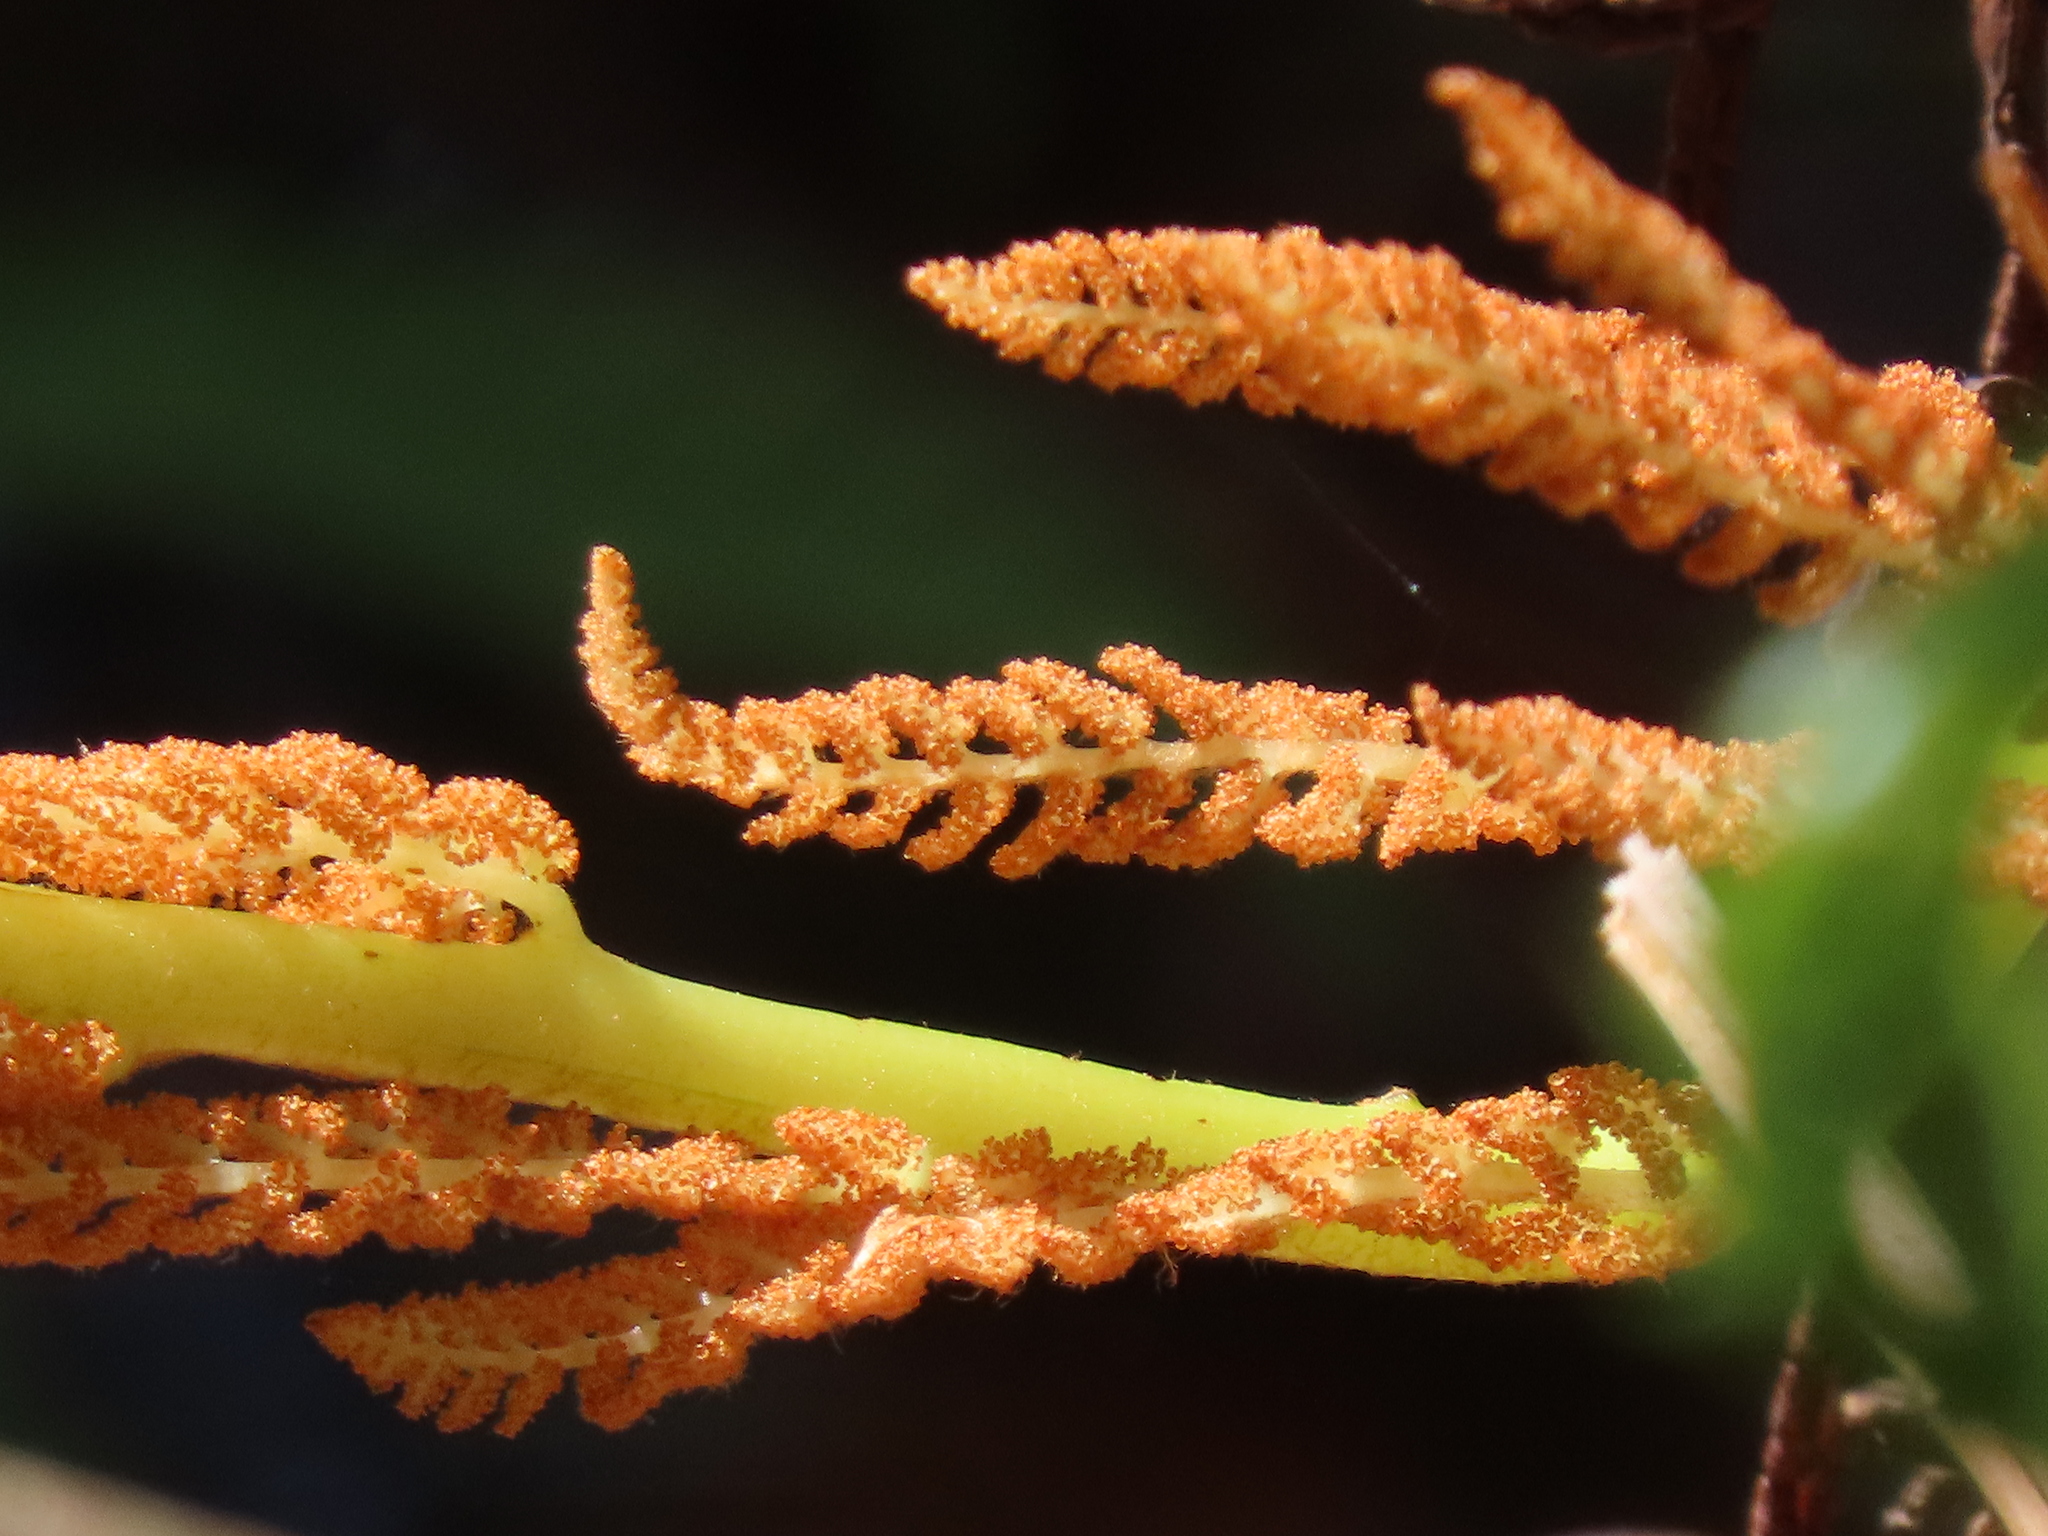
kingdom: Plantae
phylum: Tracheophyta
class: Polypodiopsida
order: Osmundales
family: Osmundaceae
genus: Osmundastrum
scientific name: Osmundastrum cinnamomeum
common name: Cinnamon fern
